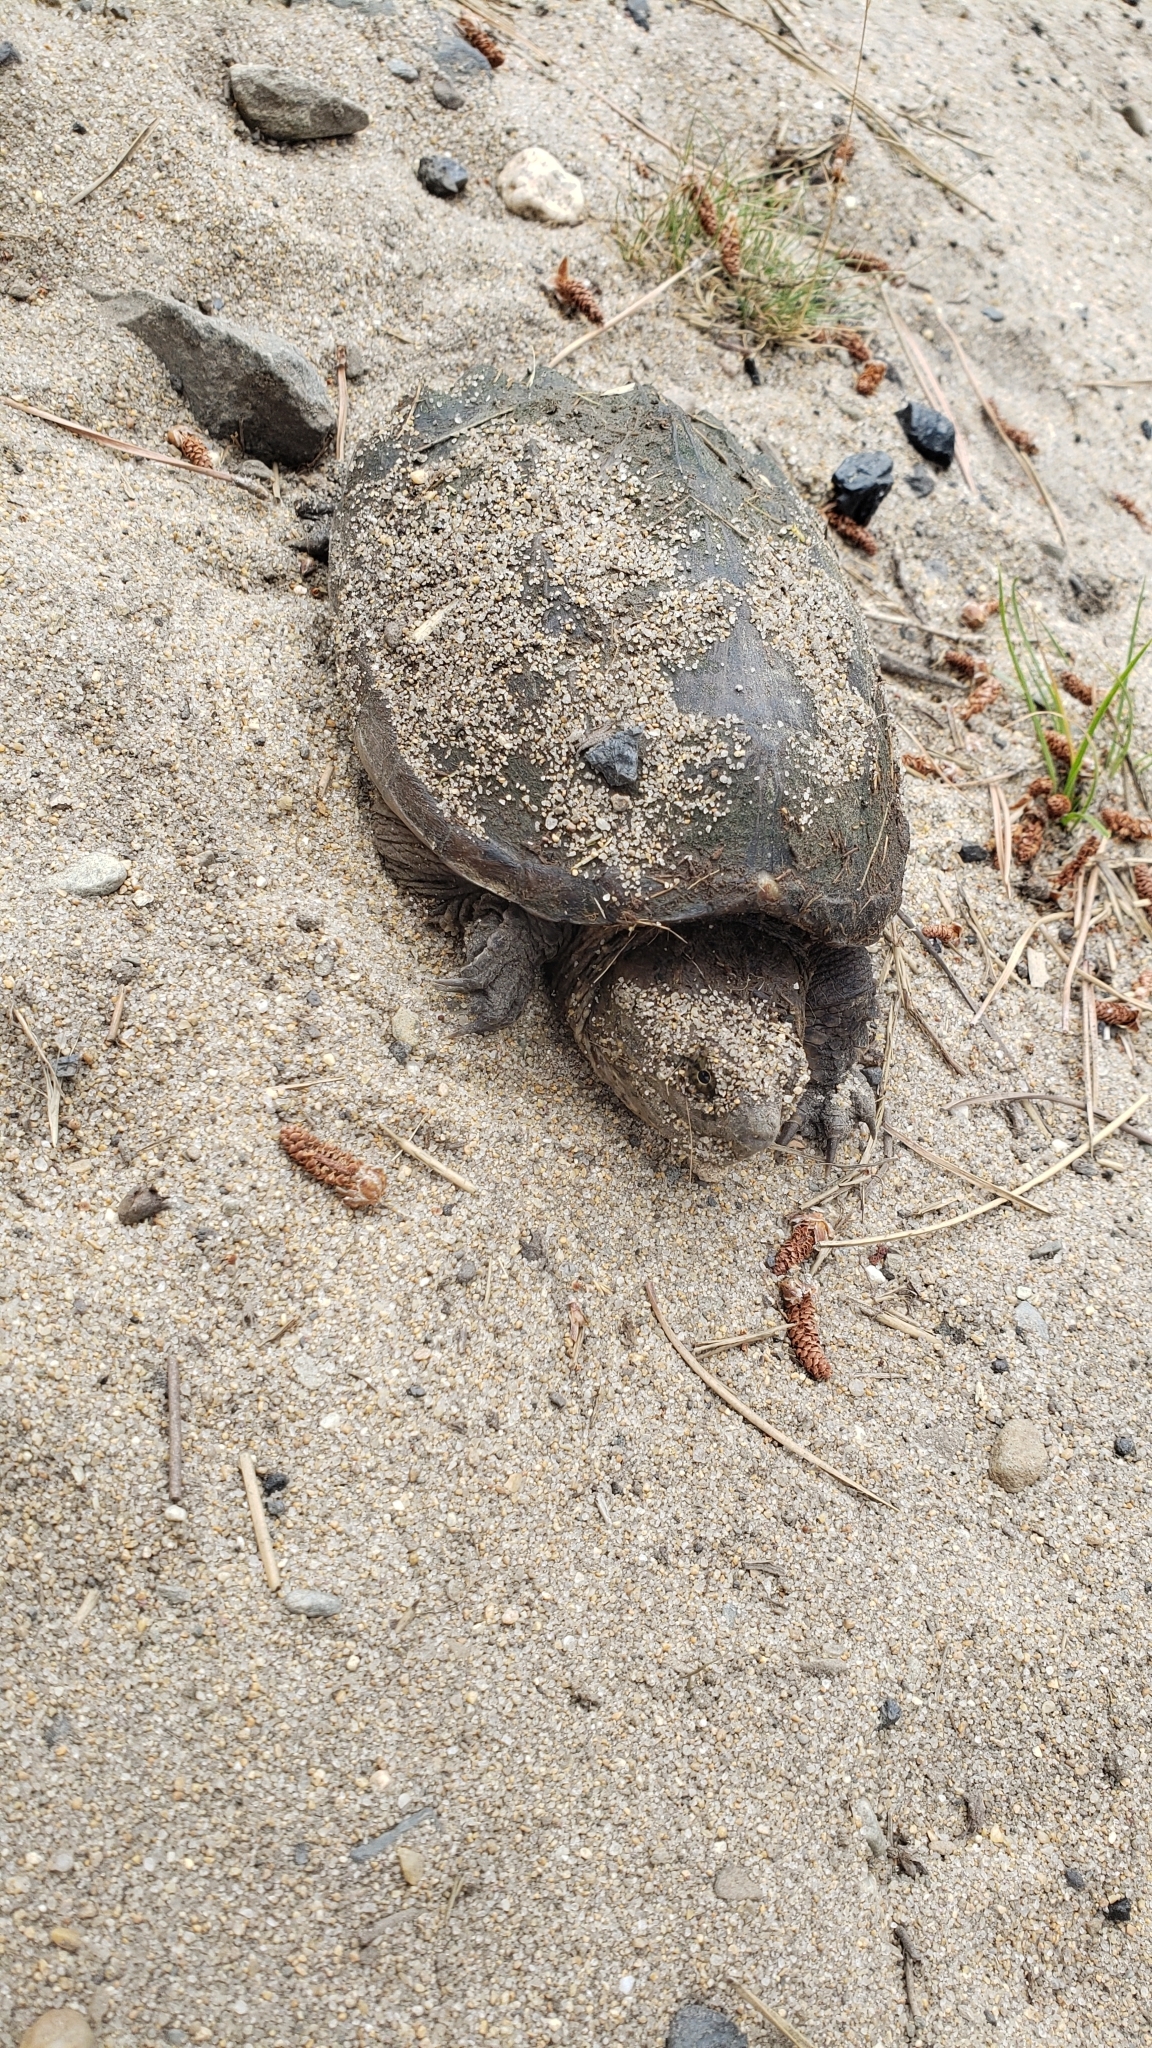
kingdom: Animalia
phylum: Chordata
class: Testudines
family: Chelydridae
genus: Chelydra
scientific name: Chelydra serpentina
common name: Common snapping turtle
